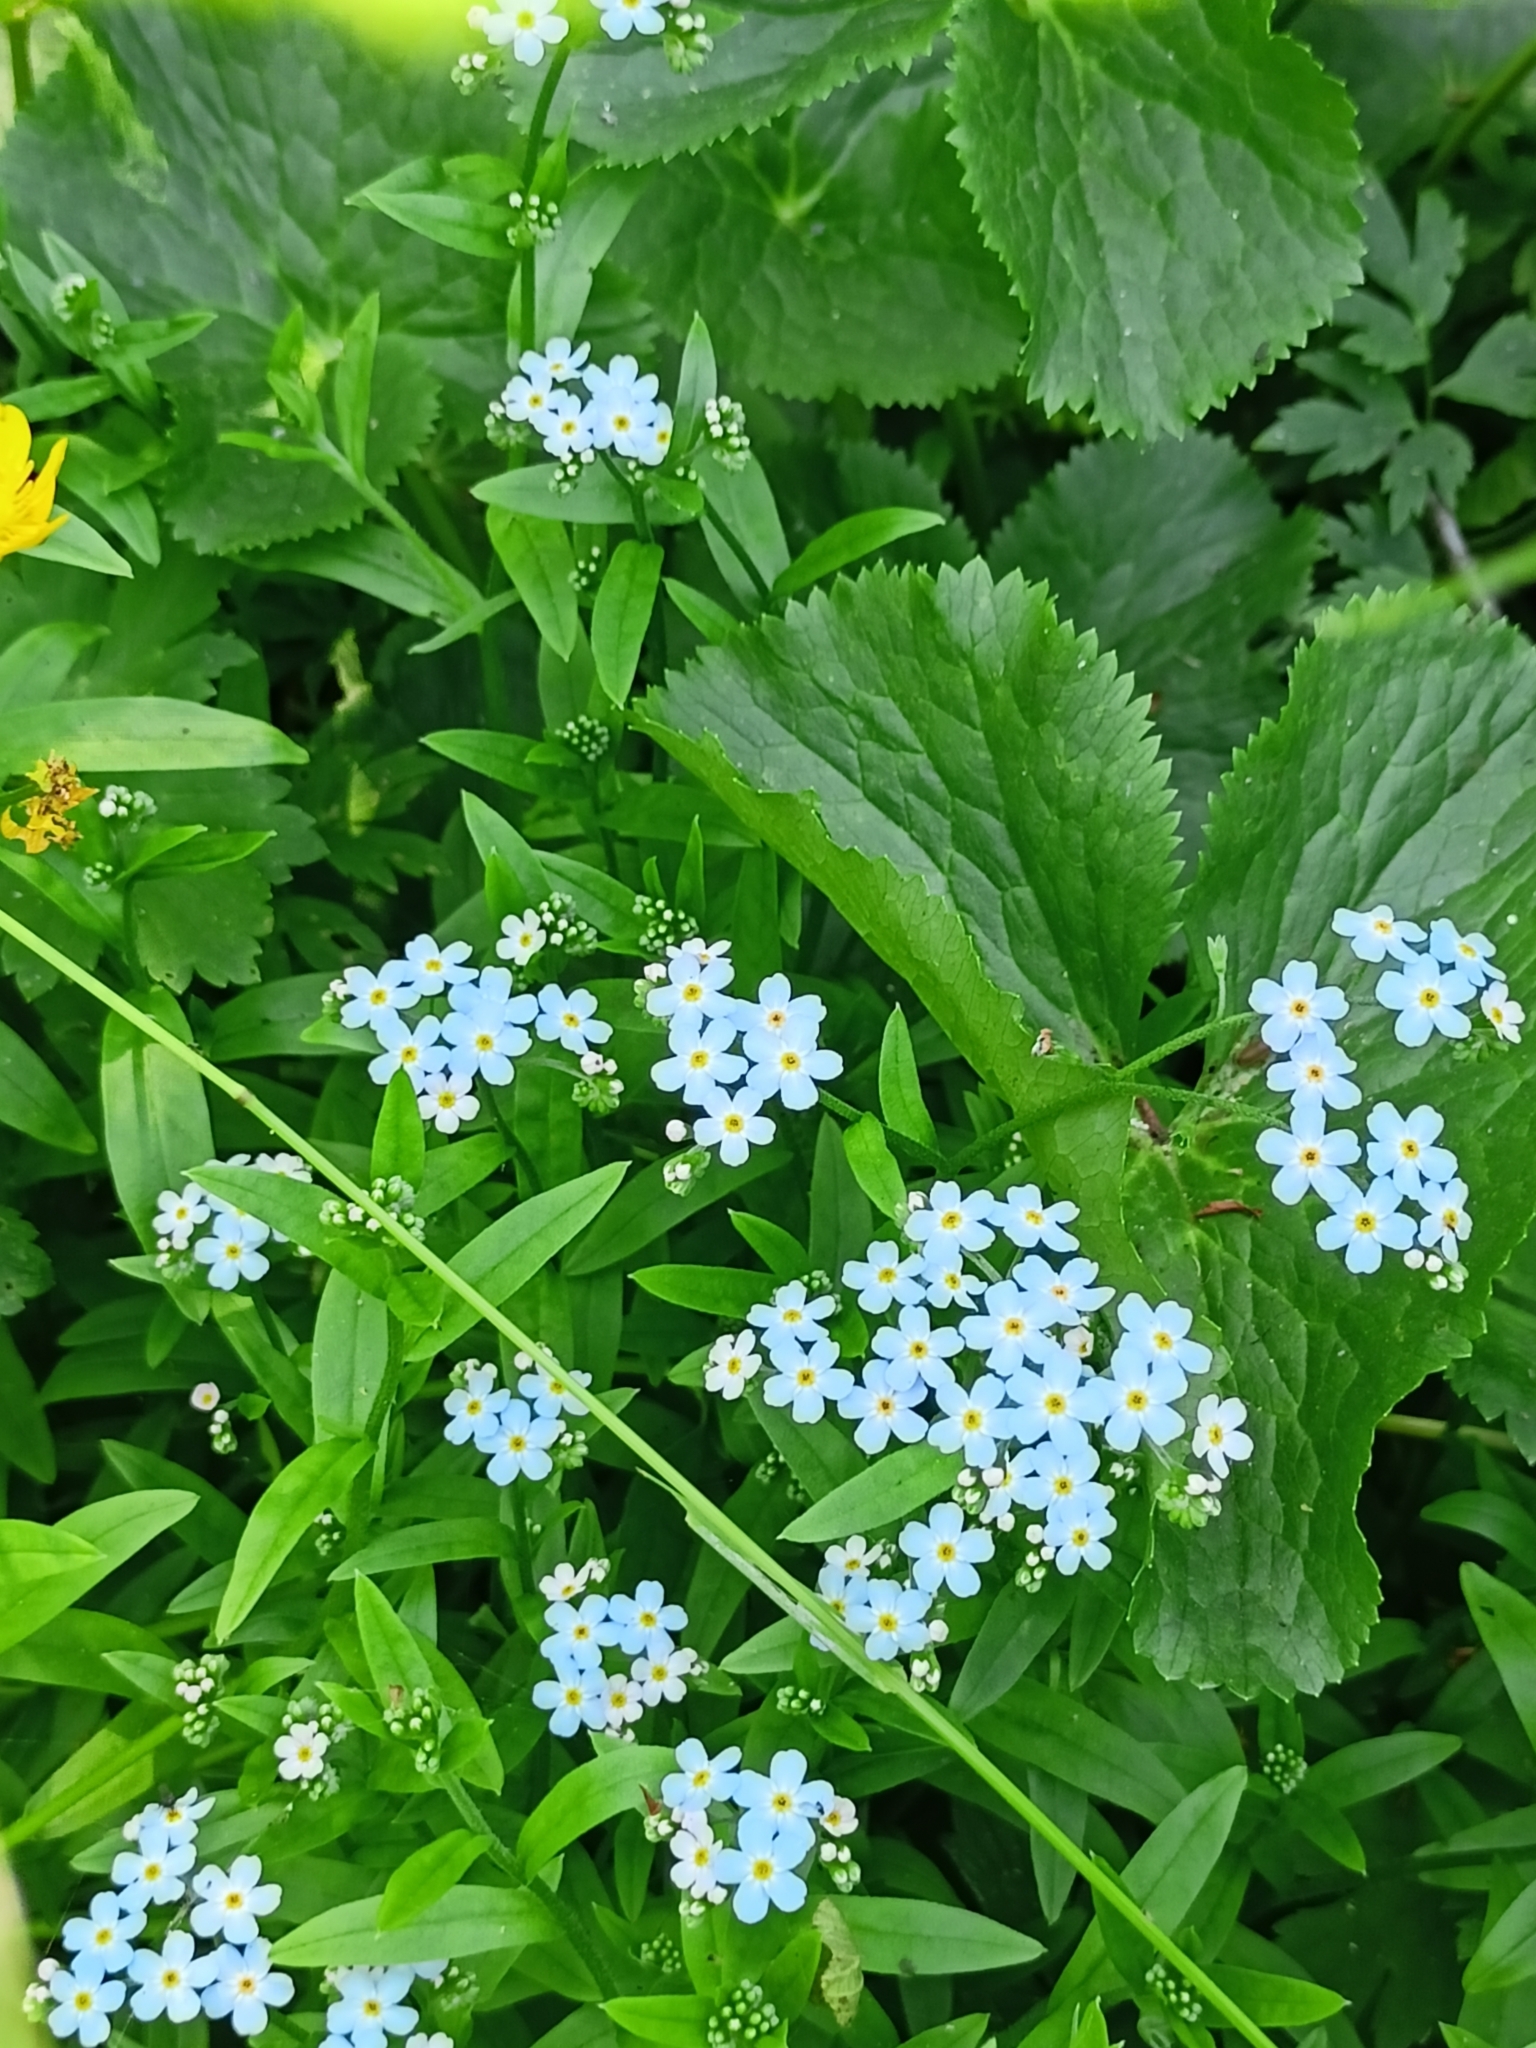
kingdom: Plantae
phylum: Tracheophyta
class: Magnoliopsida
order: Boraginales
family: Boraginaceae
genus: Myosotis
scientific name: Myosotis scorpioides
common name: Water forget-me-not
